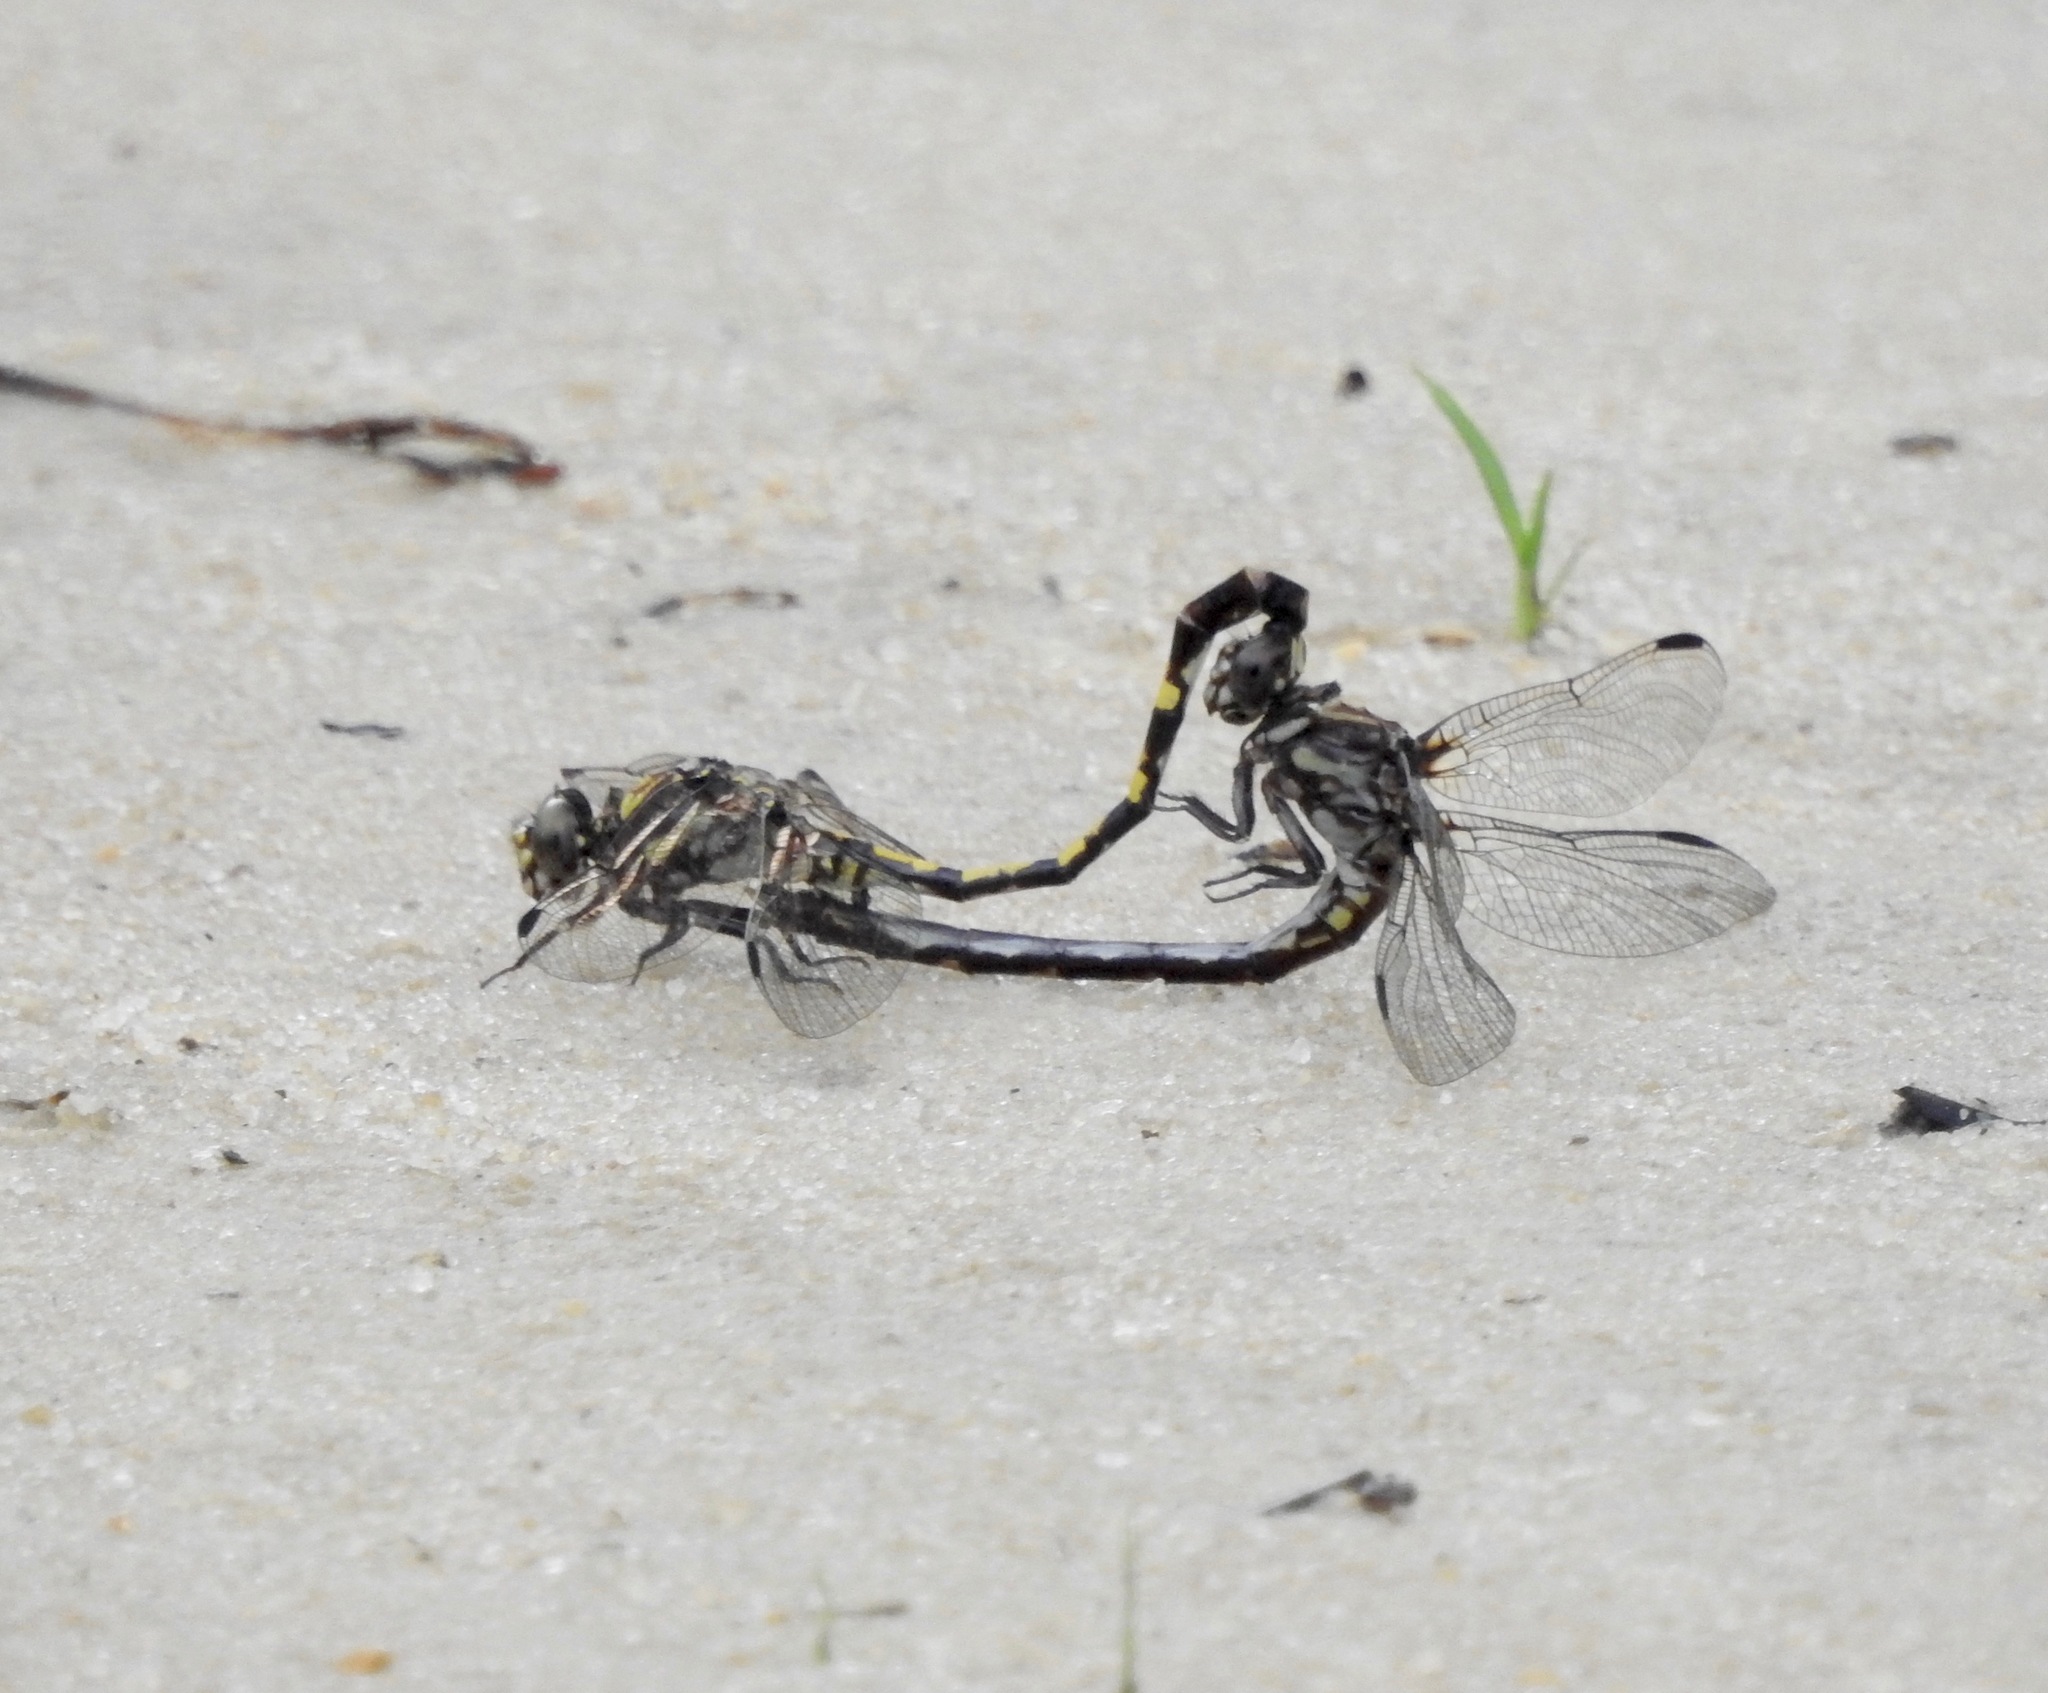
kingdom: Animalia
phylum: Arthropoda
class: Insecta
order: Odonata
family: Gomphidae
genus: Progomphus
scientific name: Progomphus bellei
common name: Belle's sanddragon
